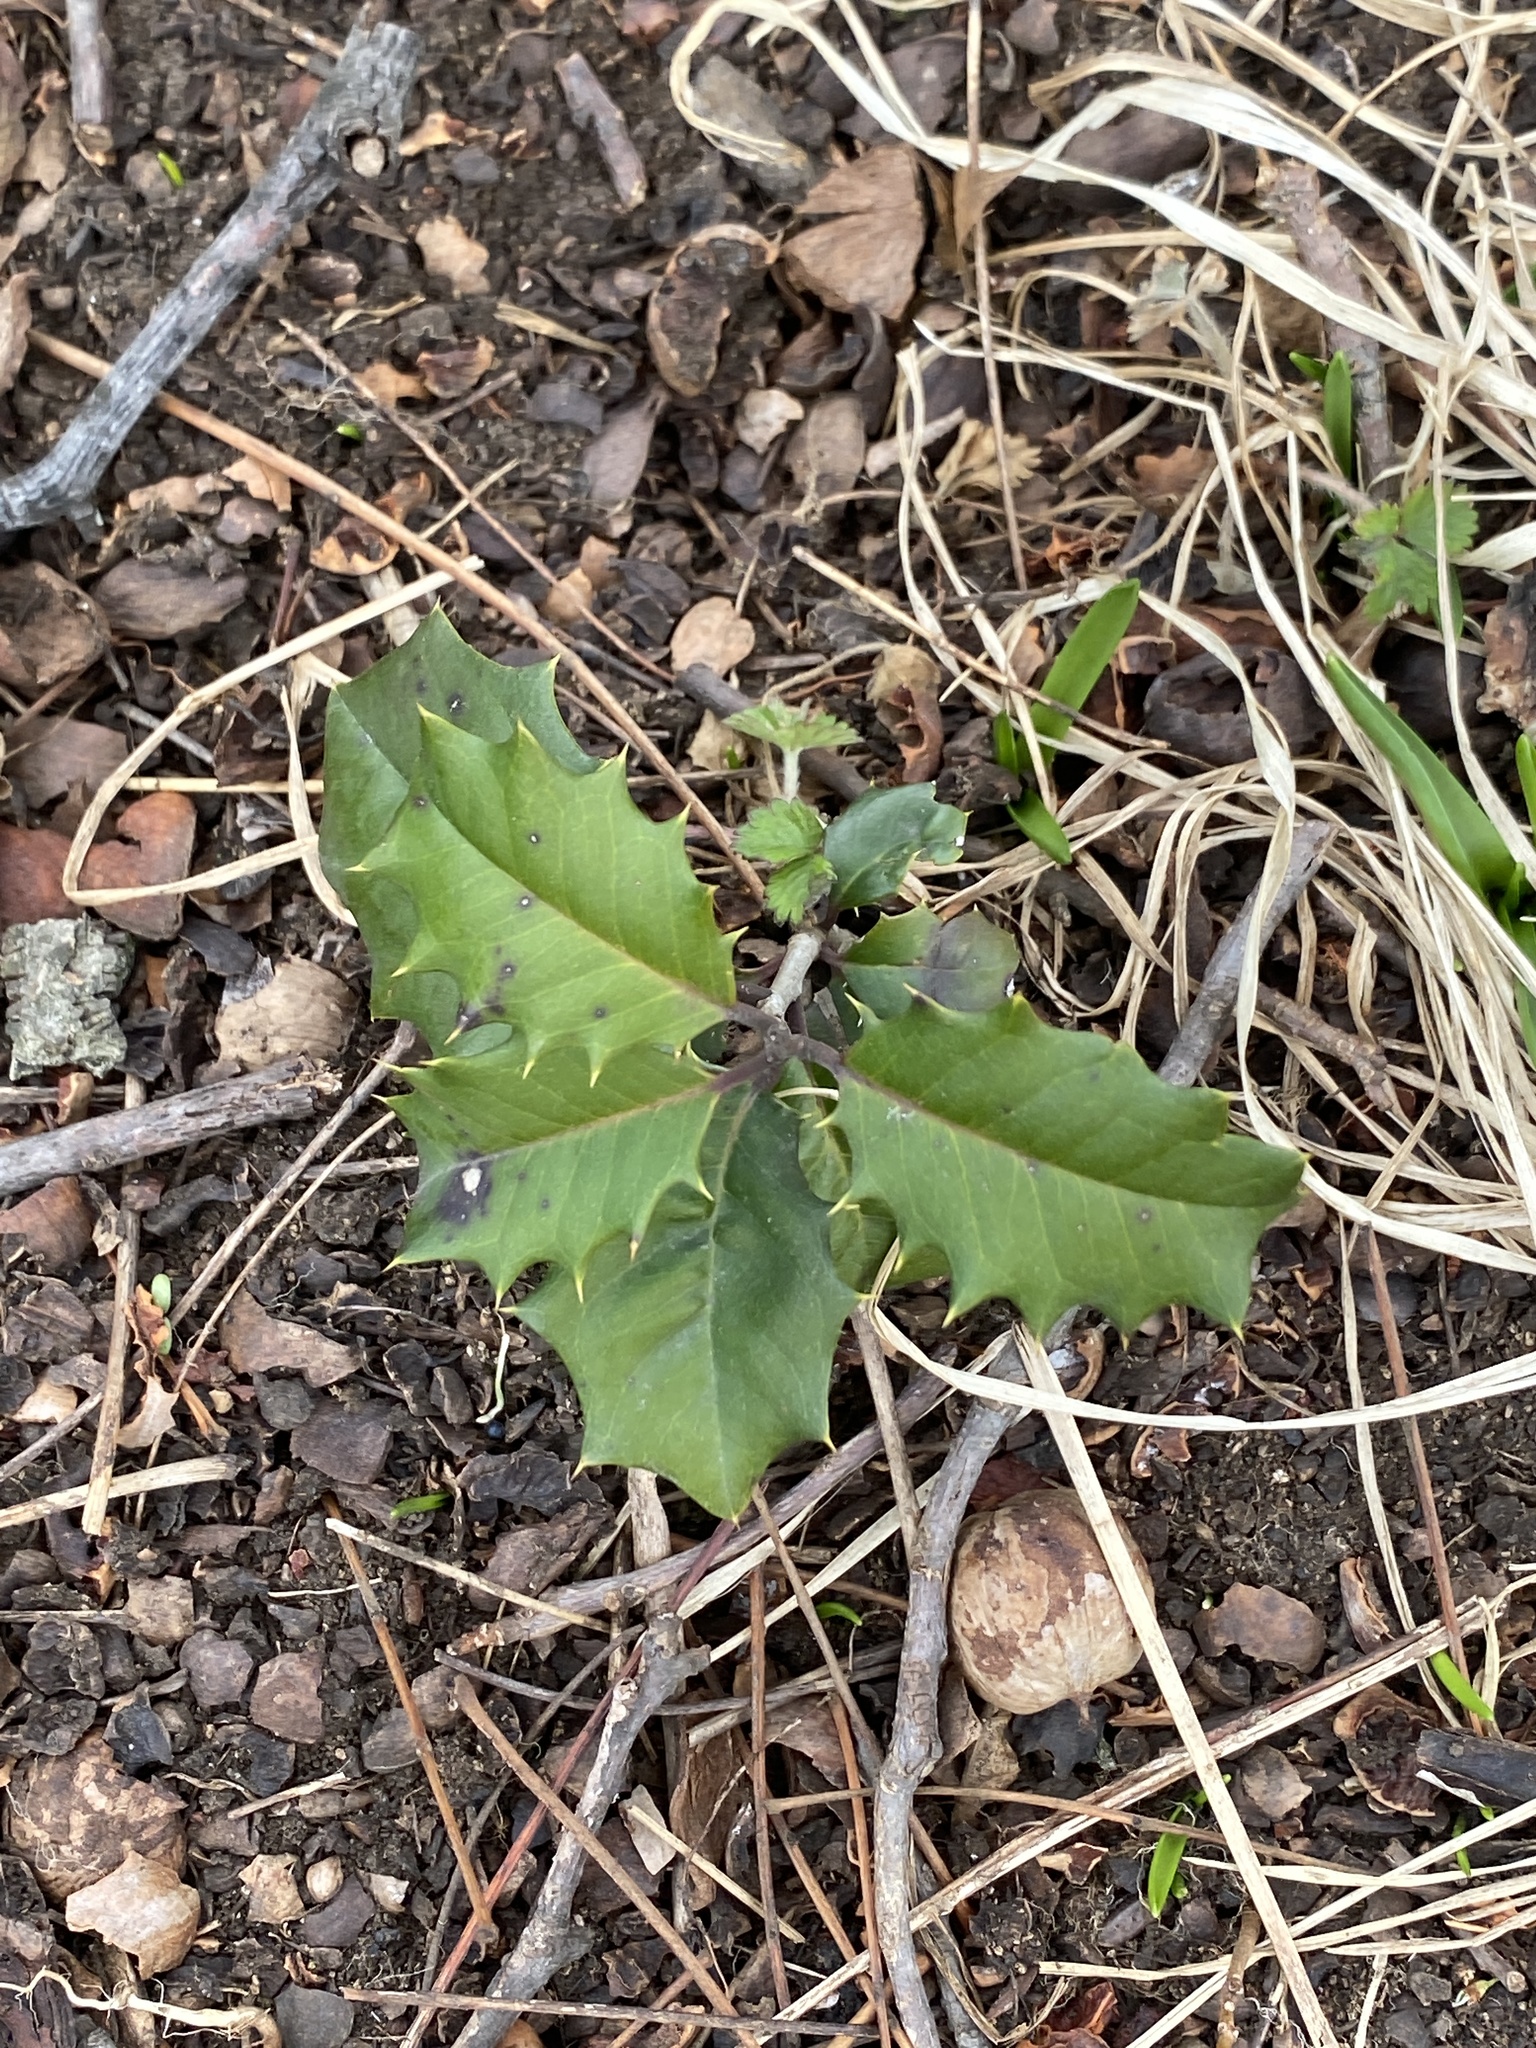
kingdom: Plantae
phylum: Tracheophyta
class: Magnoliopsida
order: Aquifoliales
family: Aquifoliaceae
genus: Ilex
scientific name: Ilex opaca
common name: American holly
